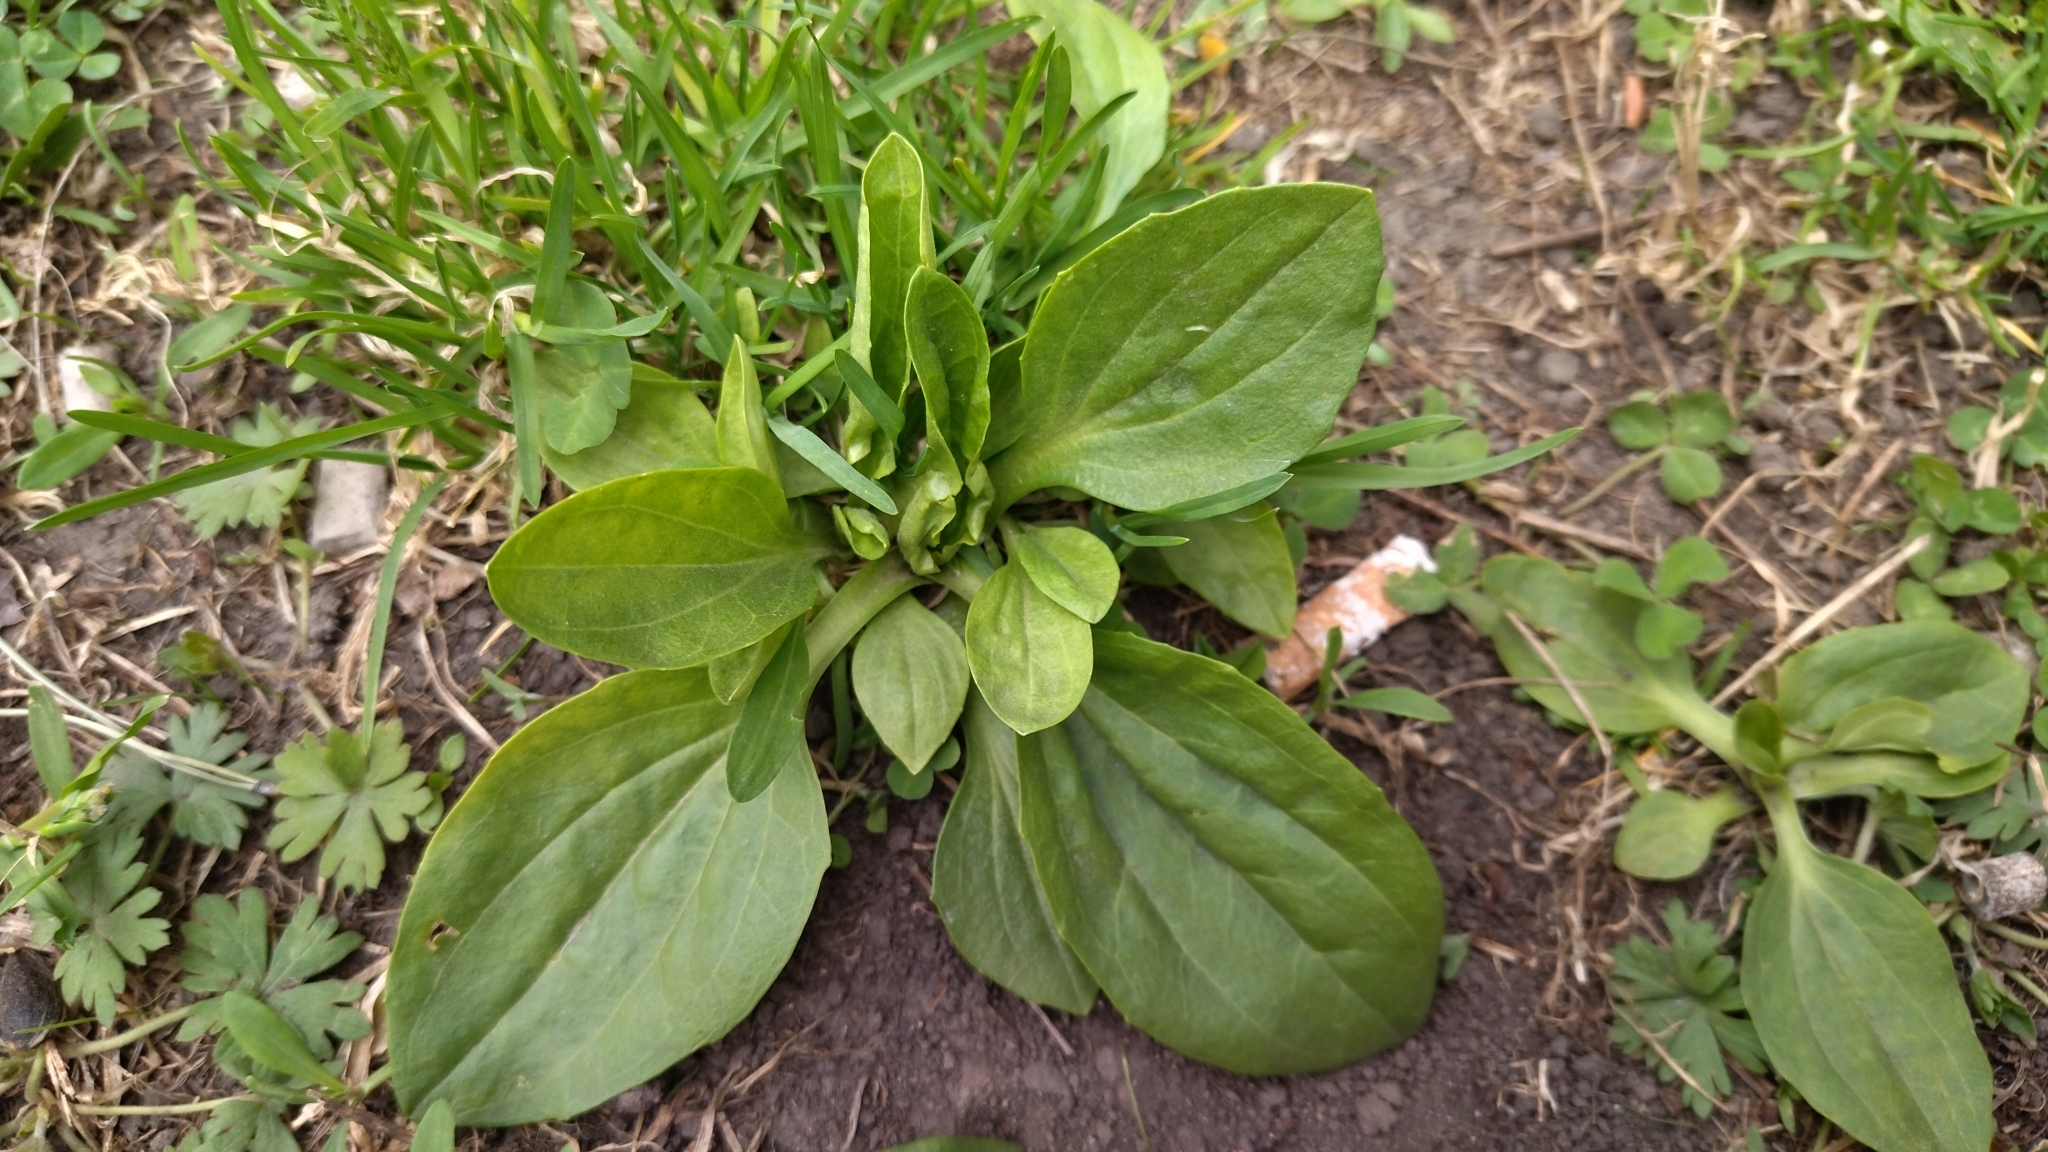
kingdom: Plantae
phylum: Tracheophyta
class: Magnoliopsida
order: Lamiales
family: Plantaginaceae
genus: Plantago
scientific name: Plantago major
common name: Common plantain
